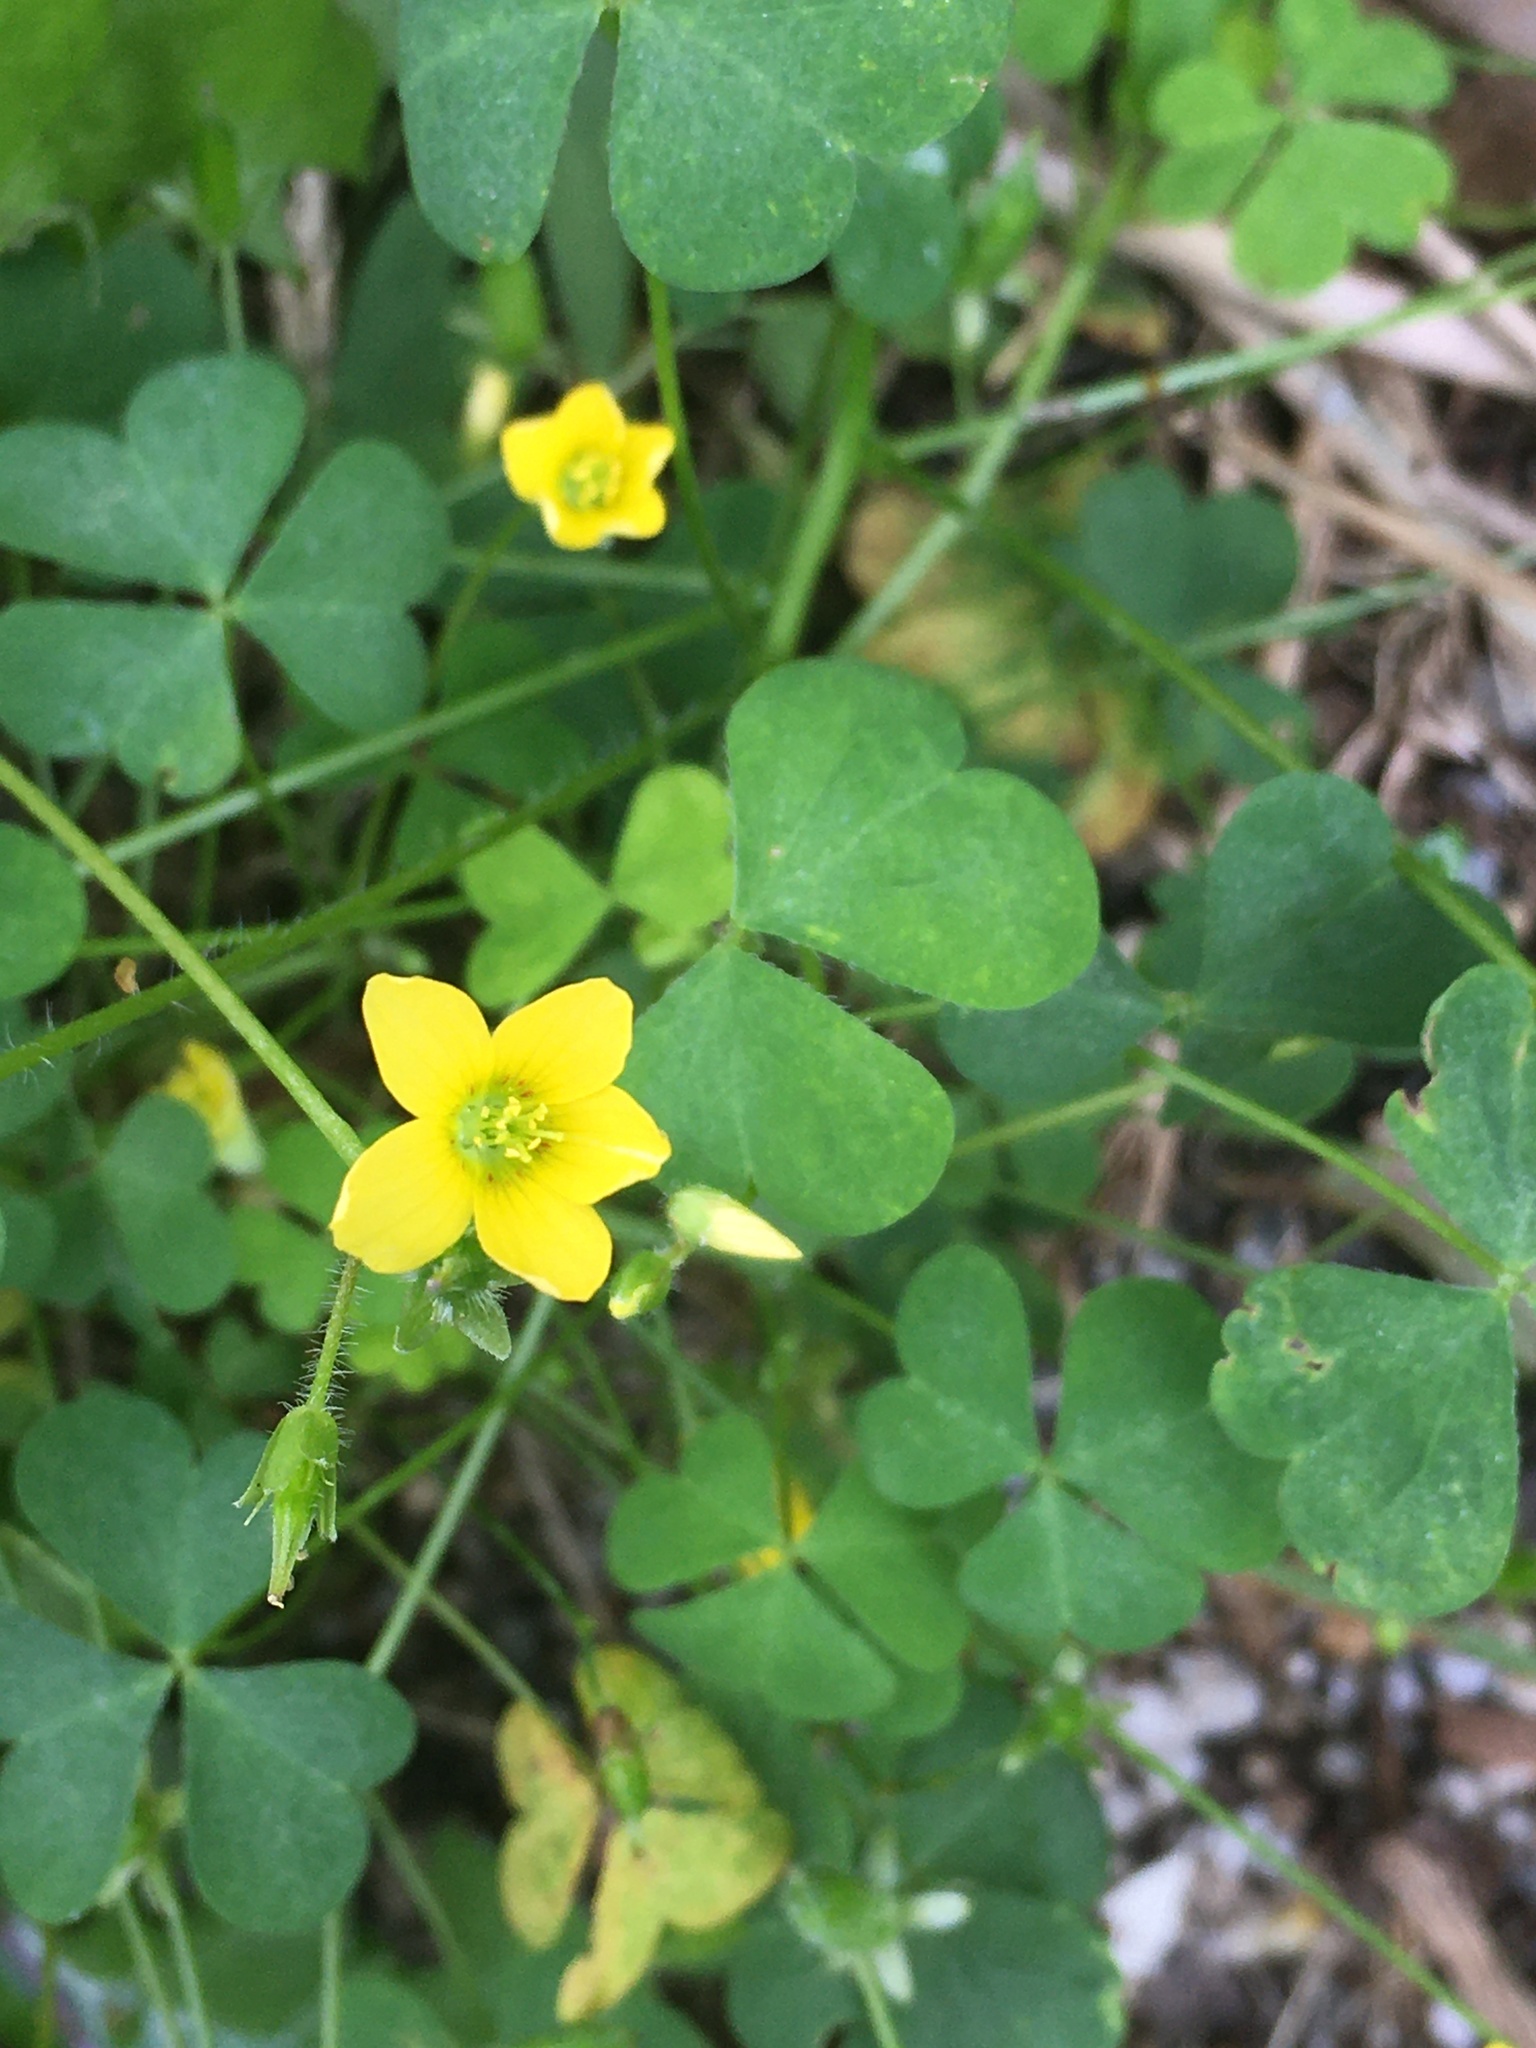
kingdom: Plantae
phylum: Tracheophyta
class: Magnoliopsida
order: Oxalidales
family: Oxalidaceae
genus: Oxalis
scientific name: Oxalis stricta
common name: Upright yellow-sorrel
